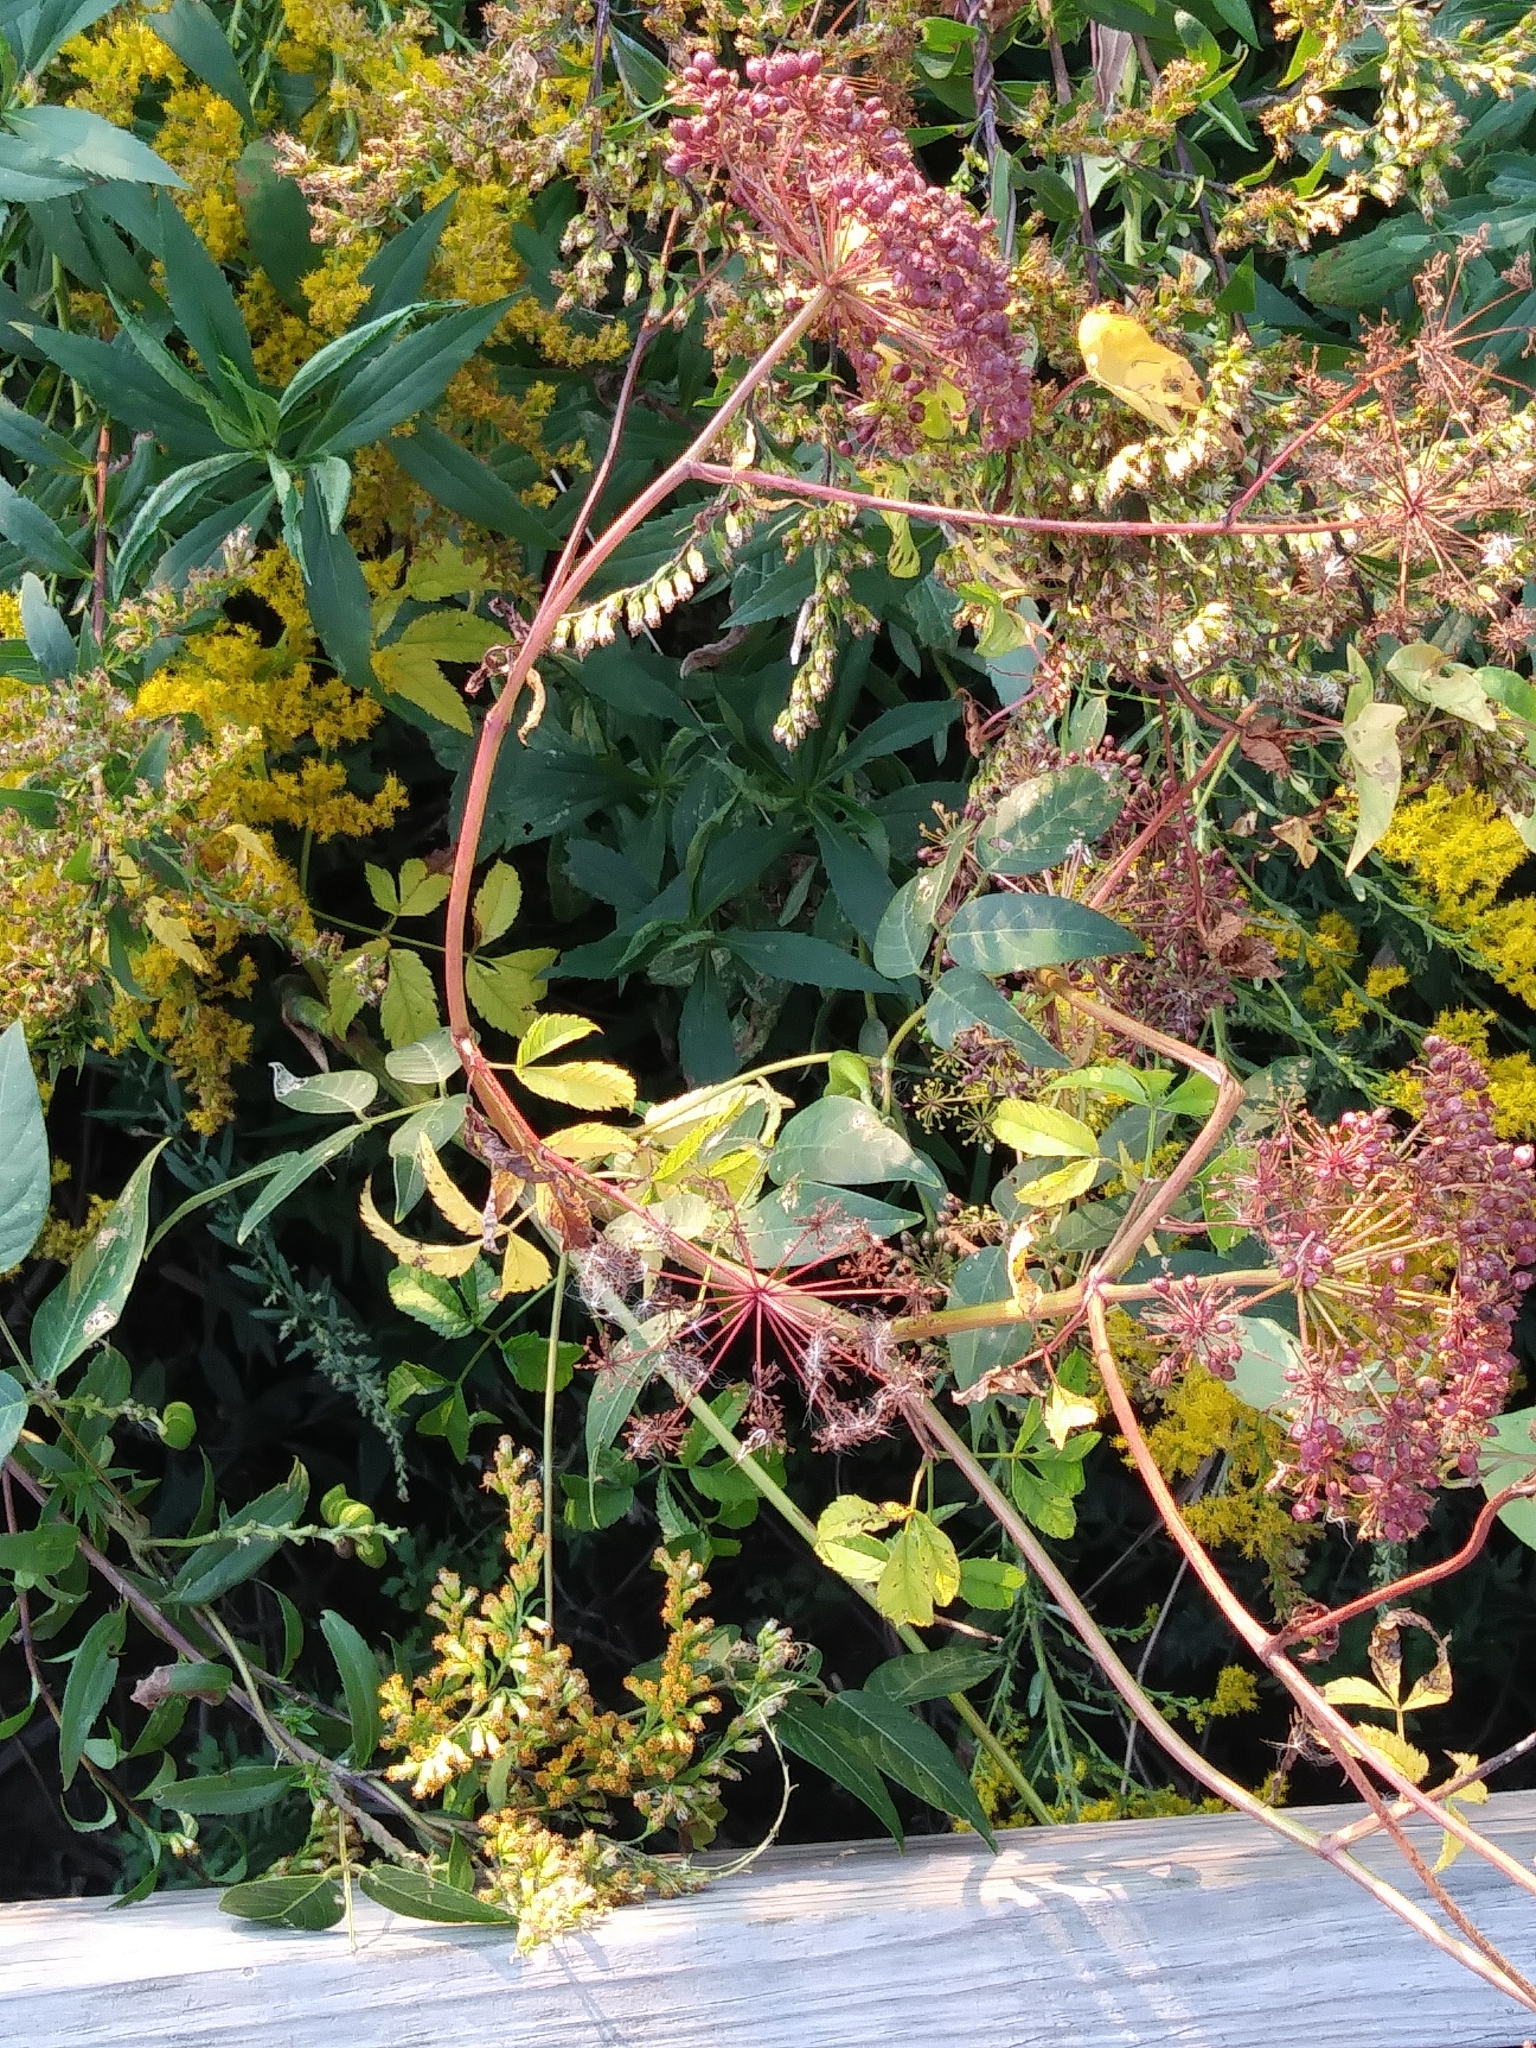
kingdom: Plantae
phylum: Tracheophyta
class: Magnoliopsida
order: Dipsacales
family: Viburnaceae
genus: Sambucus
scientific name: Sambucus canadensis
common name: American elder
